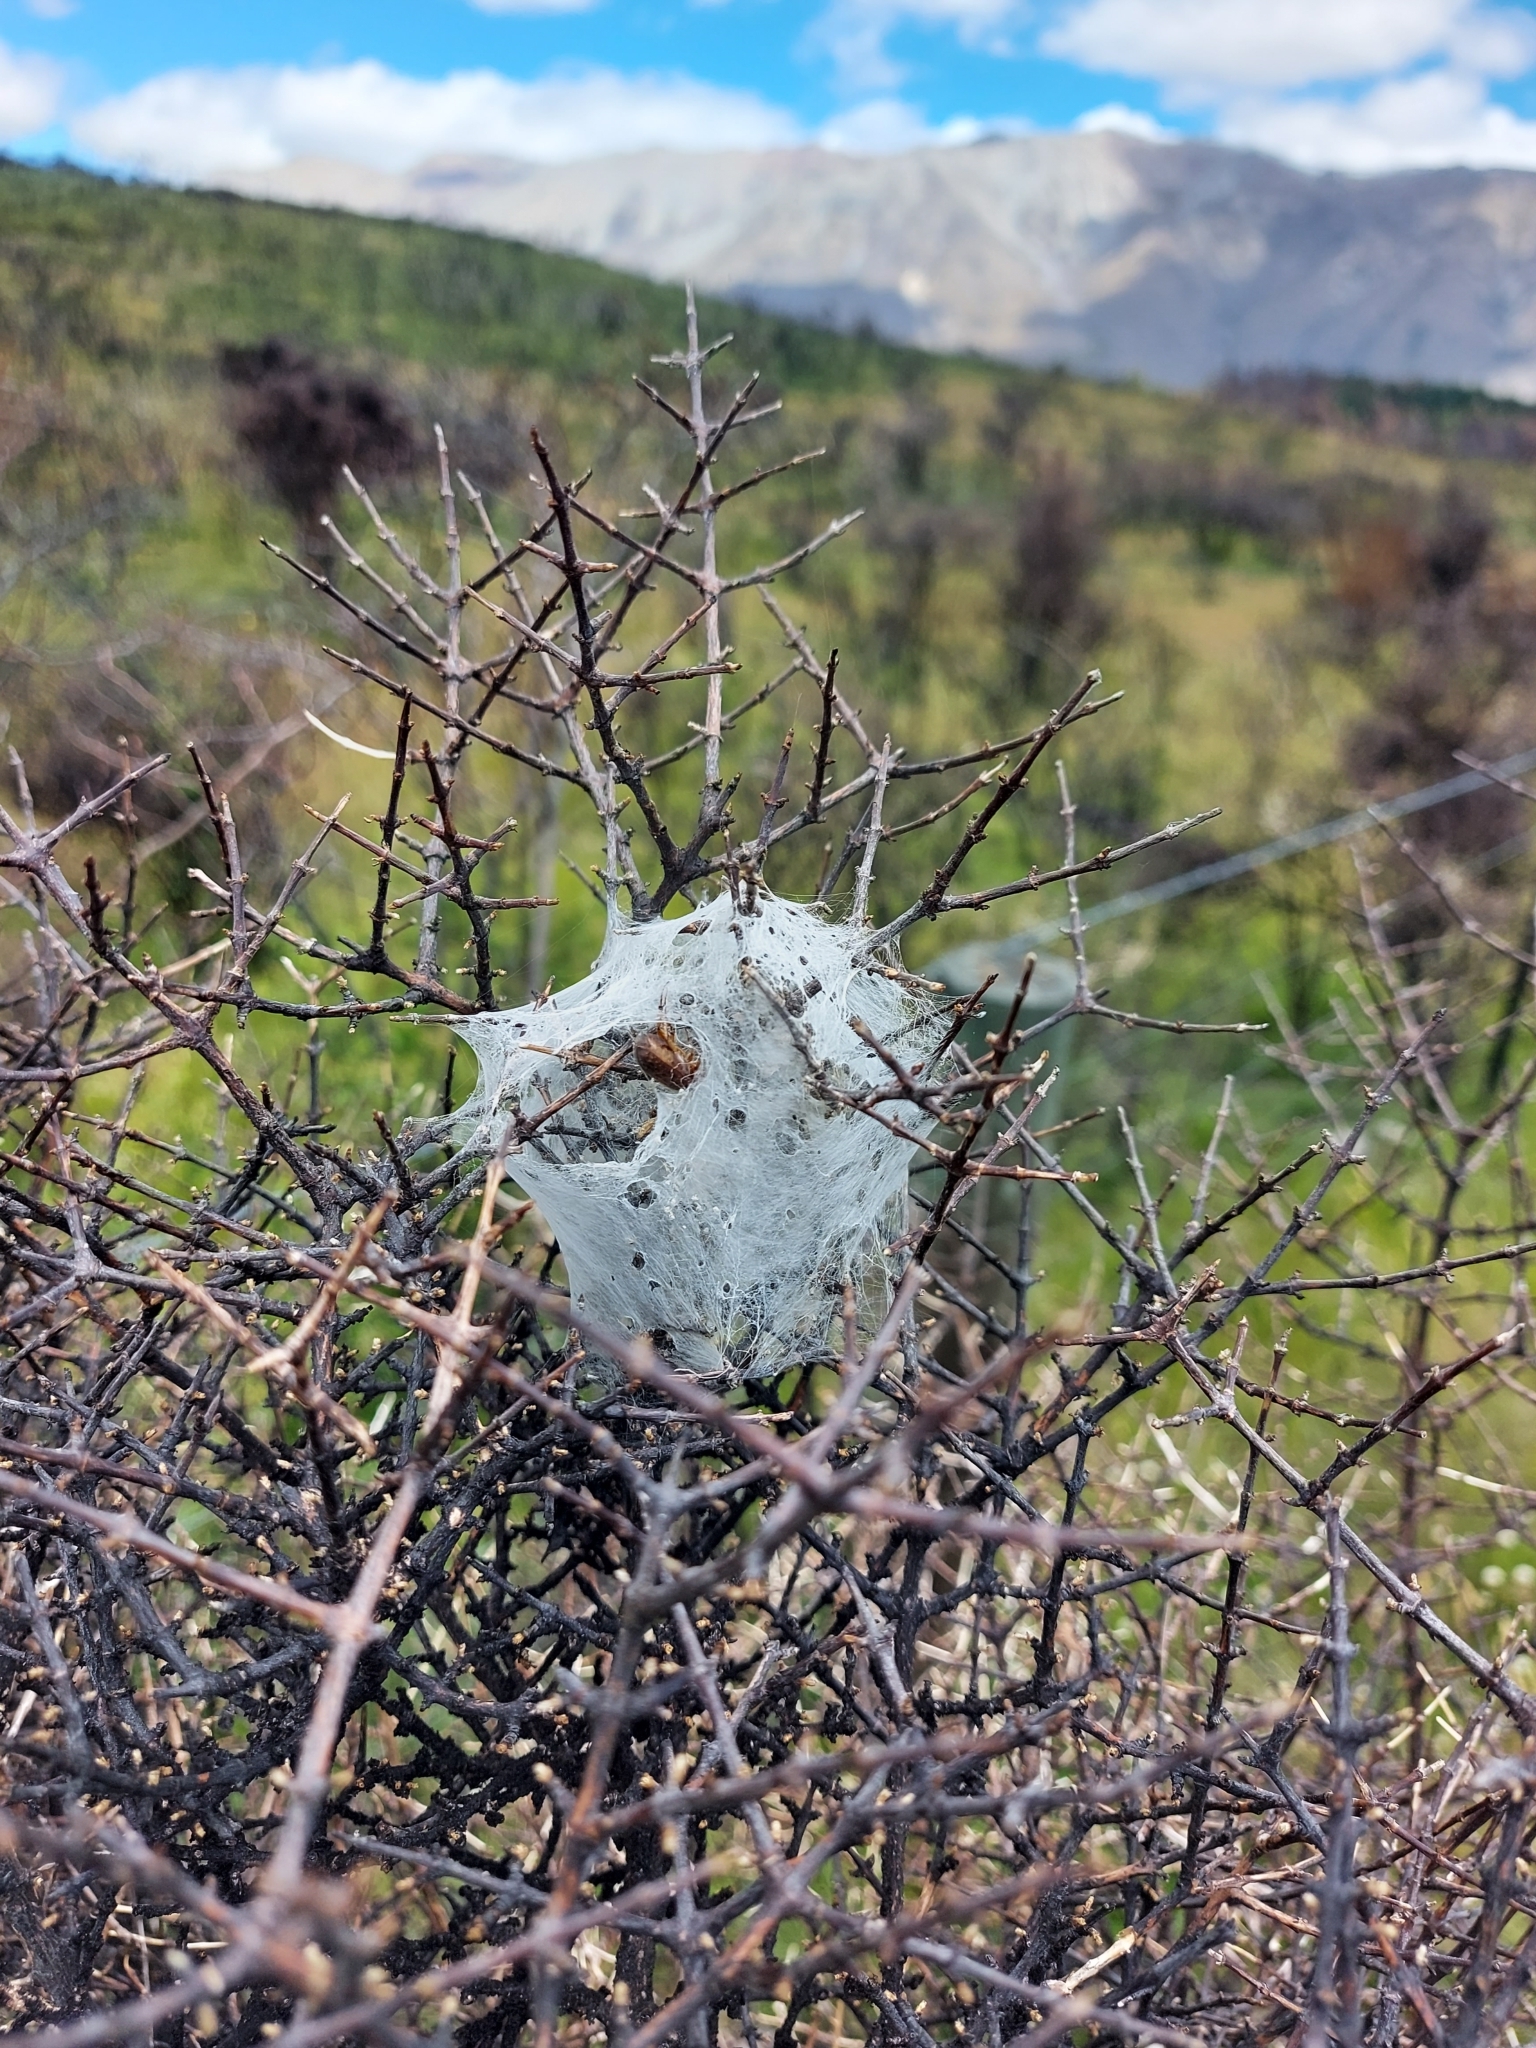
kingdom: Animalia
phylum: Arthropoda
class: Arachnida
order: Araneae
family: Pisauridae
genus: Dolomedes
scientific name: Dolomedes minor
